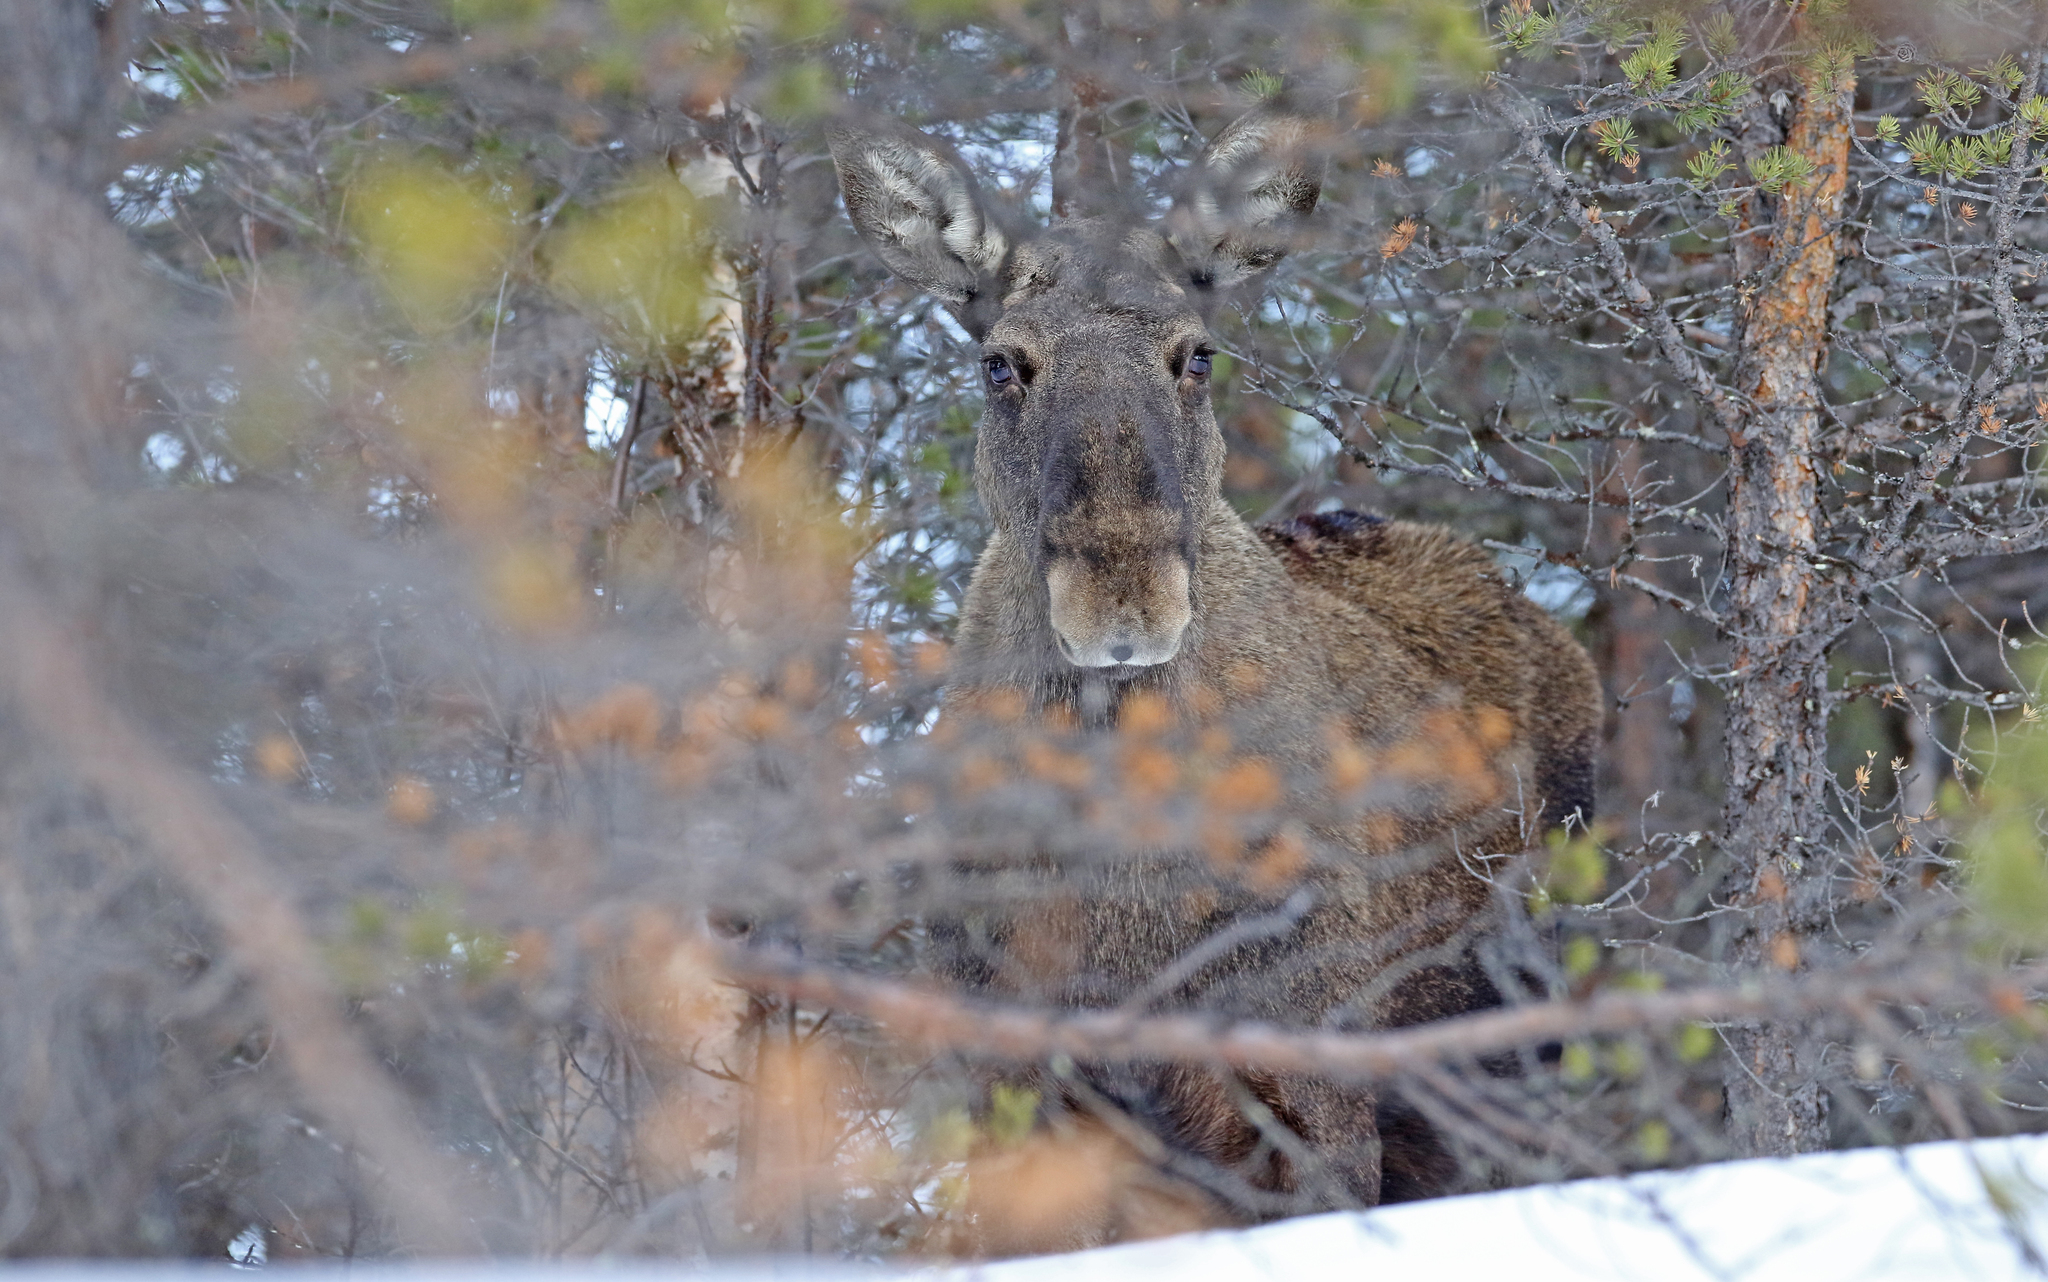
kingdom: Animalia
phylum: Chordata
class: Mammalia
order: Artiodactyla
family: Cervidae
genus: Alces
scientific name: Alces alces
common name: Moose
